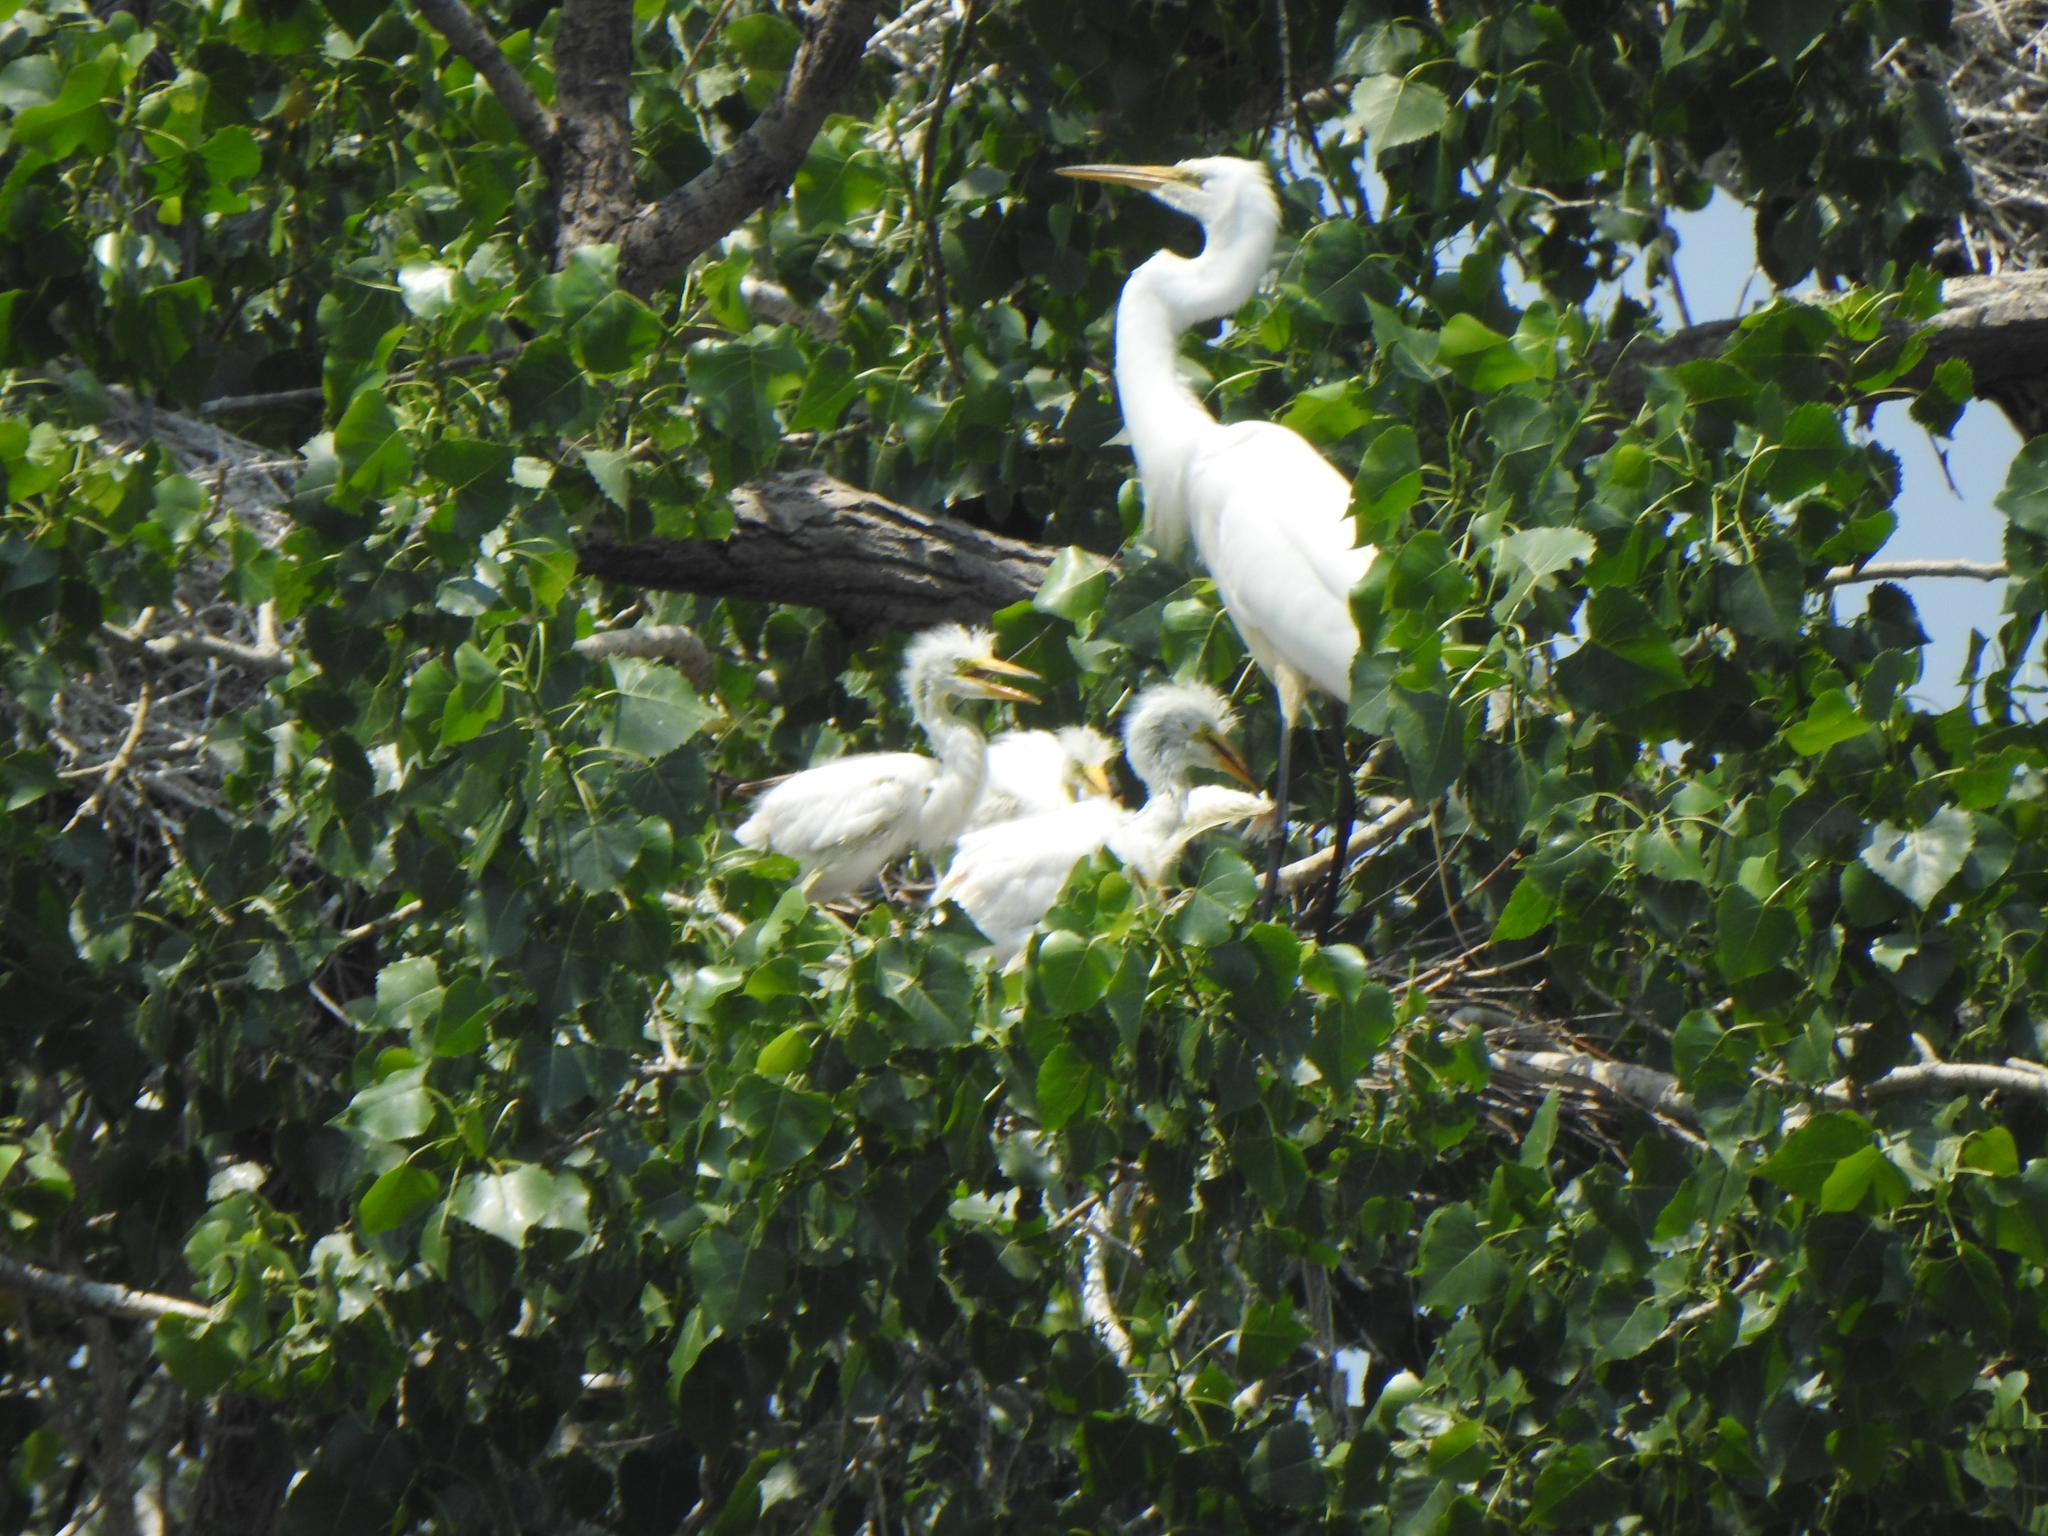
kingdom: Animalia
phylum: Chordata
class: Aves
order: Pelecaniformes
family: Ardeidae
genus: Ardea
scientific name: Ardea alba
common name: Great egret
